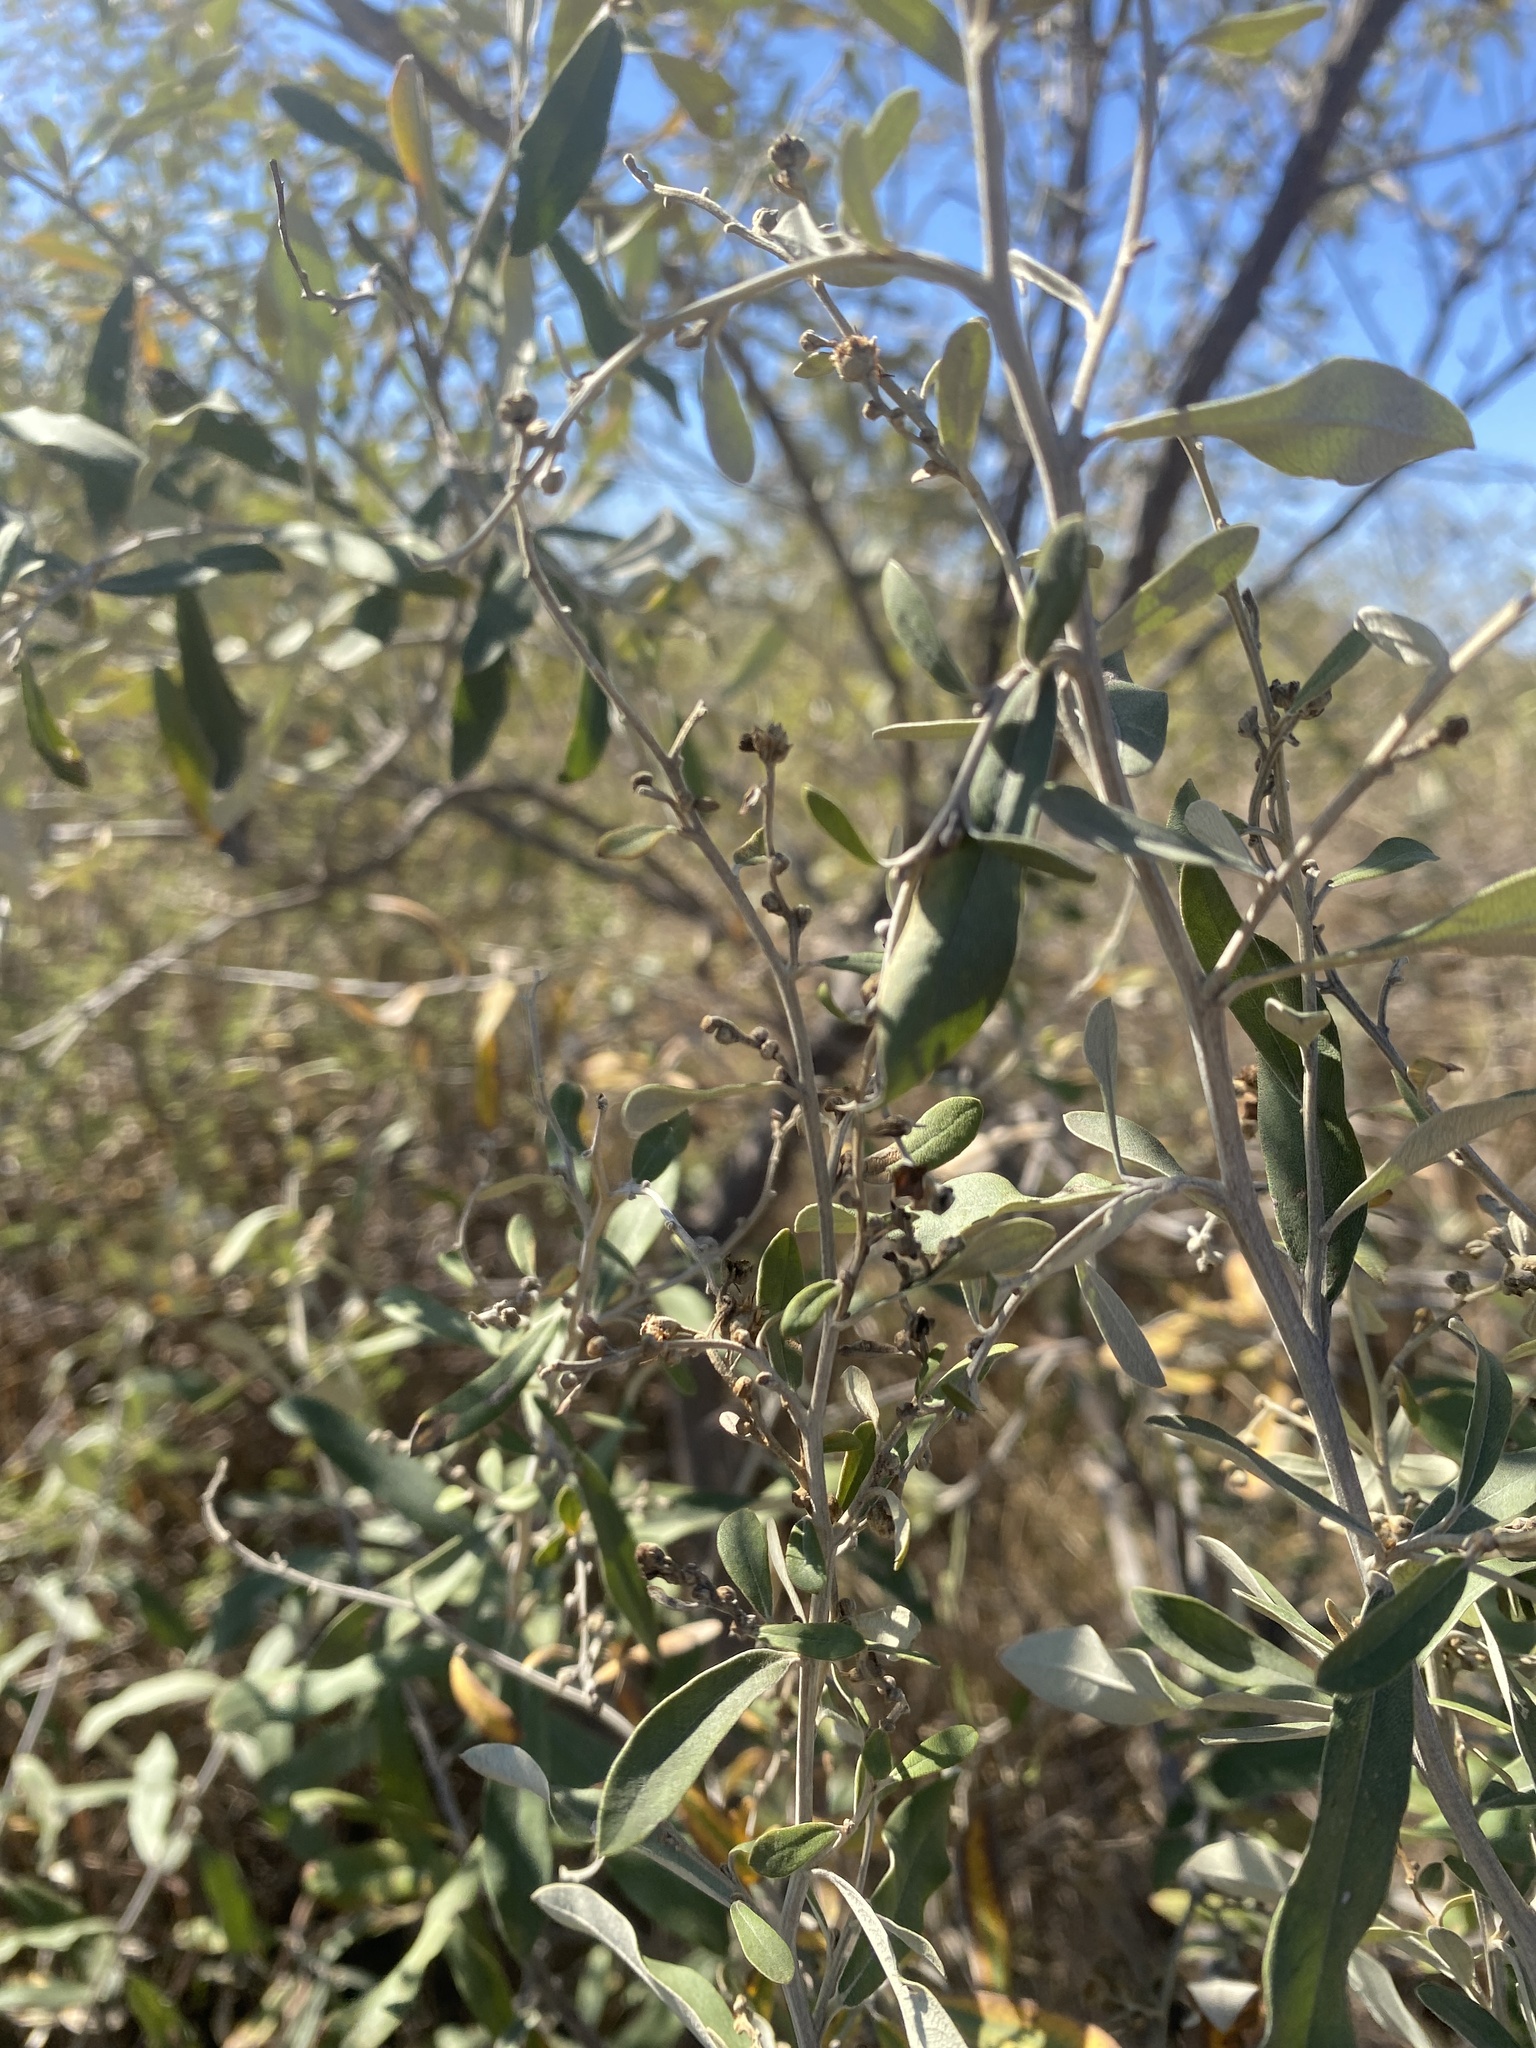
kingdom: Plantae
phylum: Tracheophyta
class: Magnoliopsida
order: Asterales
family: Asteraceae
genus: Tarchonanthus
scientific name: Tarchonanthus camphoratus
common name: Camphorwood
